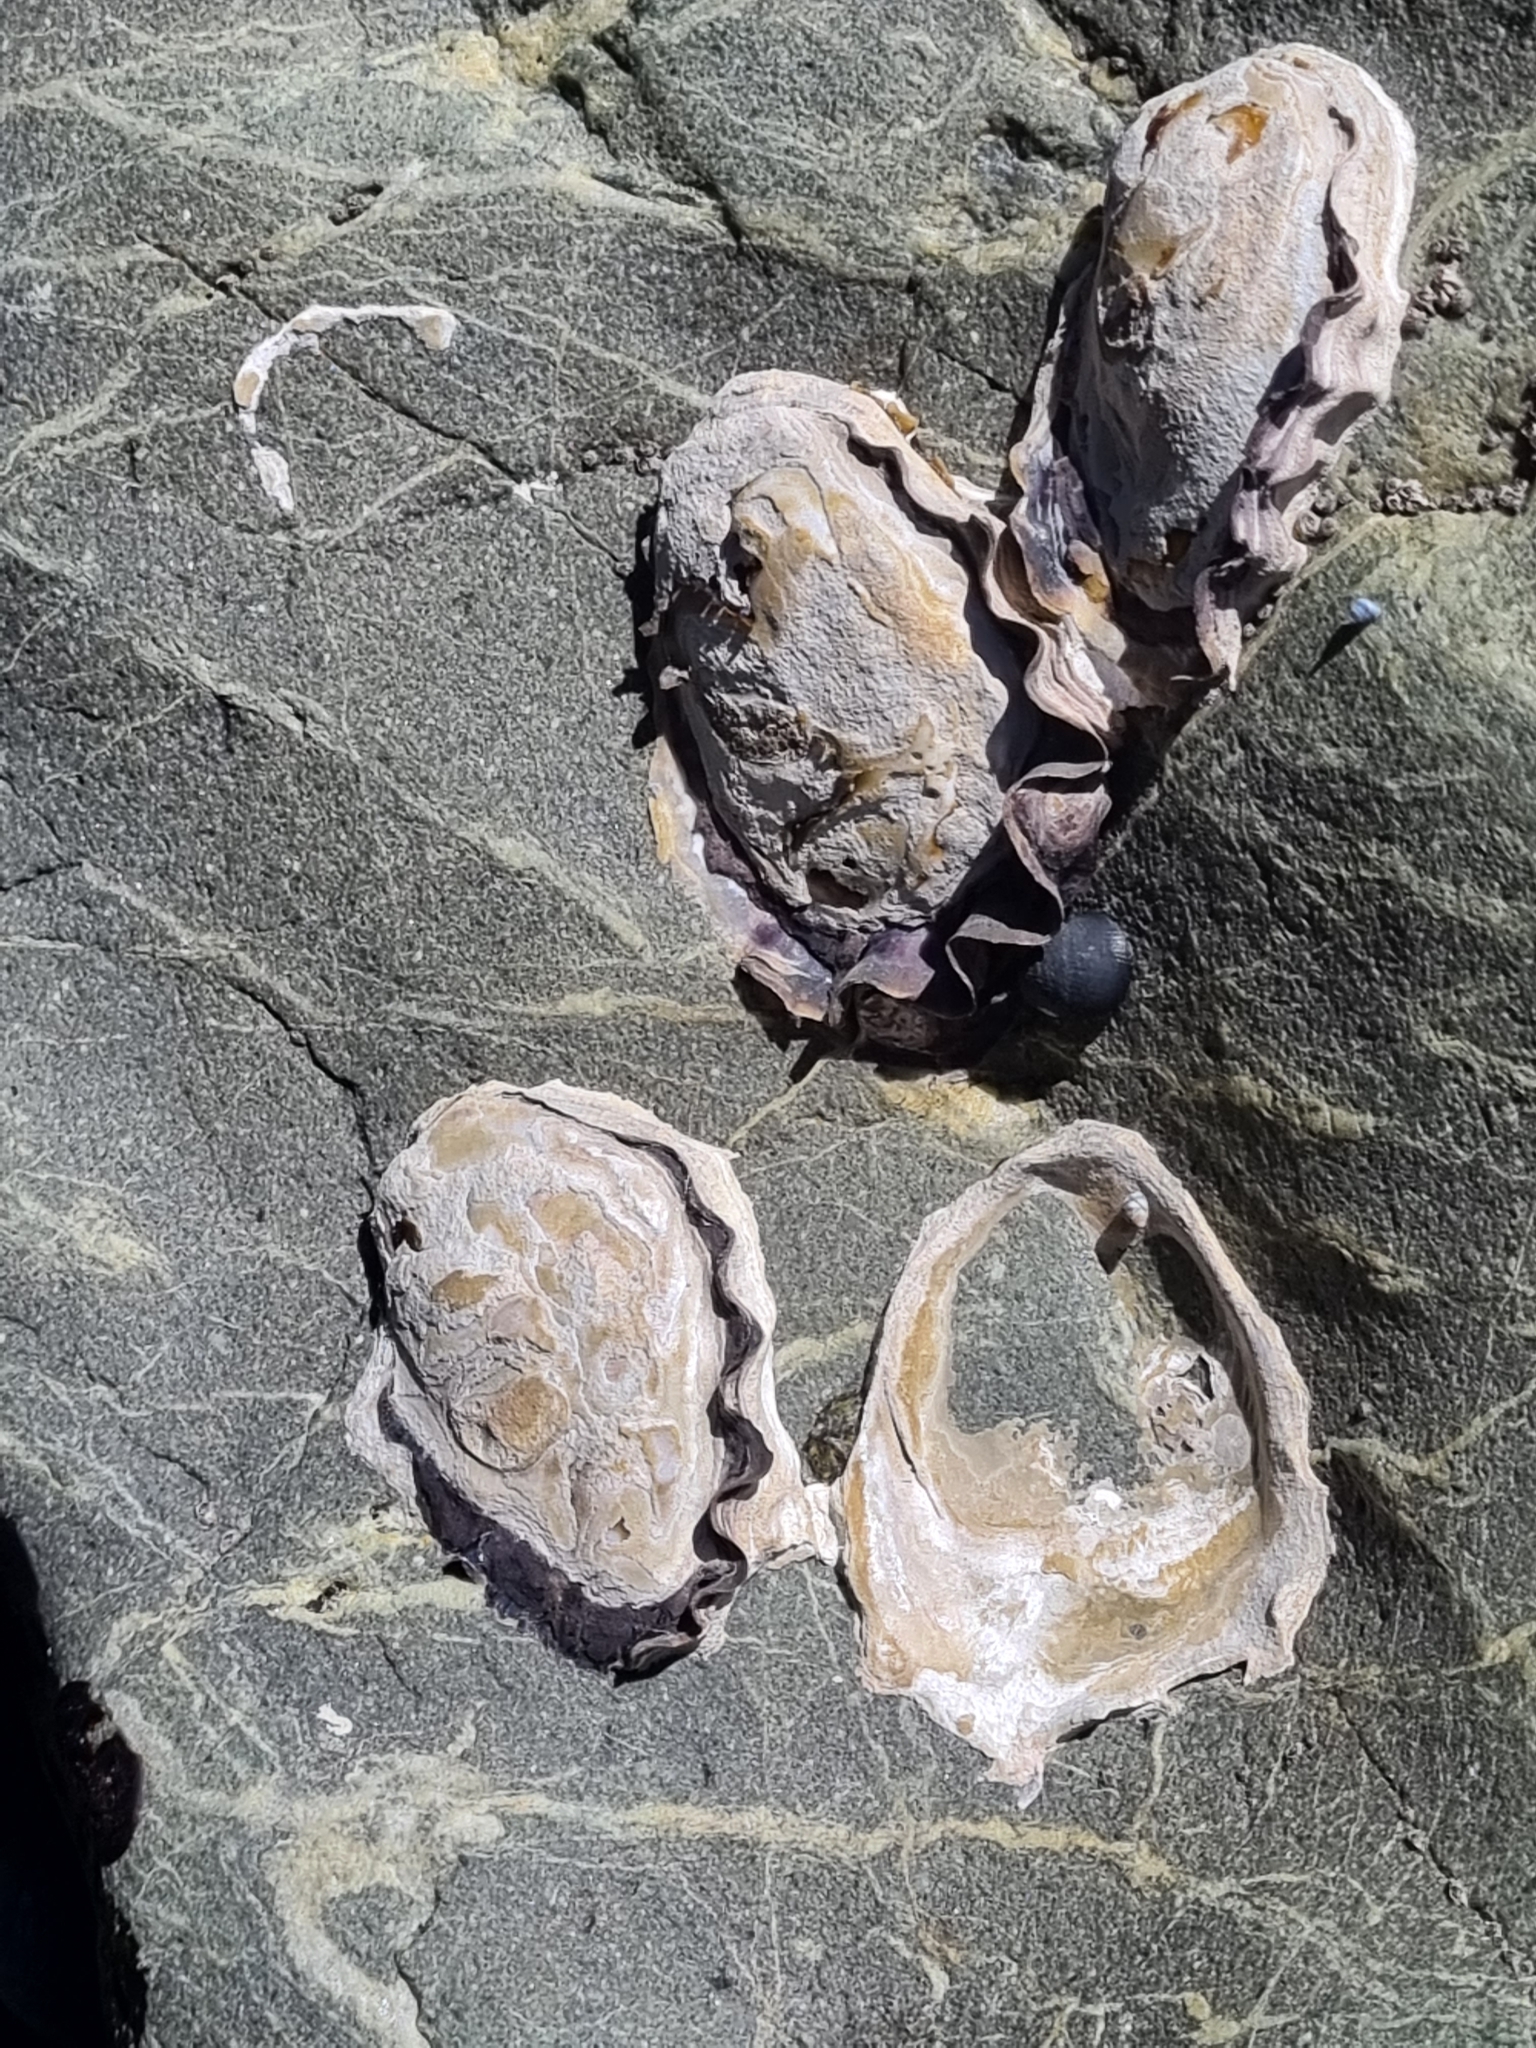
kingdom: Animalia
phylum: Mollusca
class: Bivalvia
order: Ostreida
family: Ostreidae
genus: Saccostrea
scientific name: Saccostrea glomerata
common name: Sydney cupped oyster
